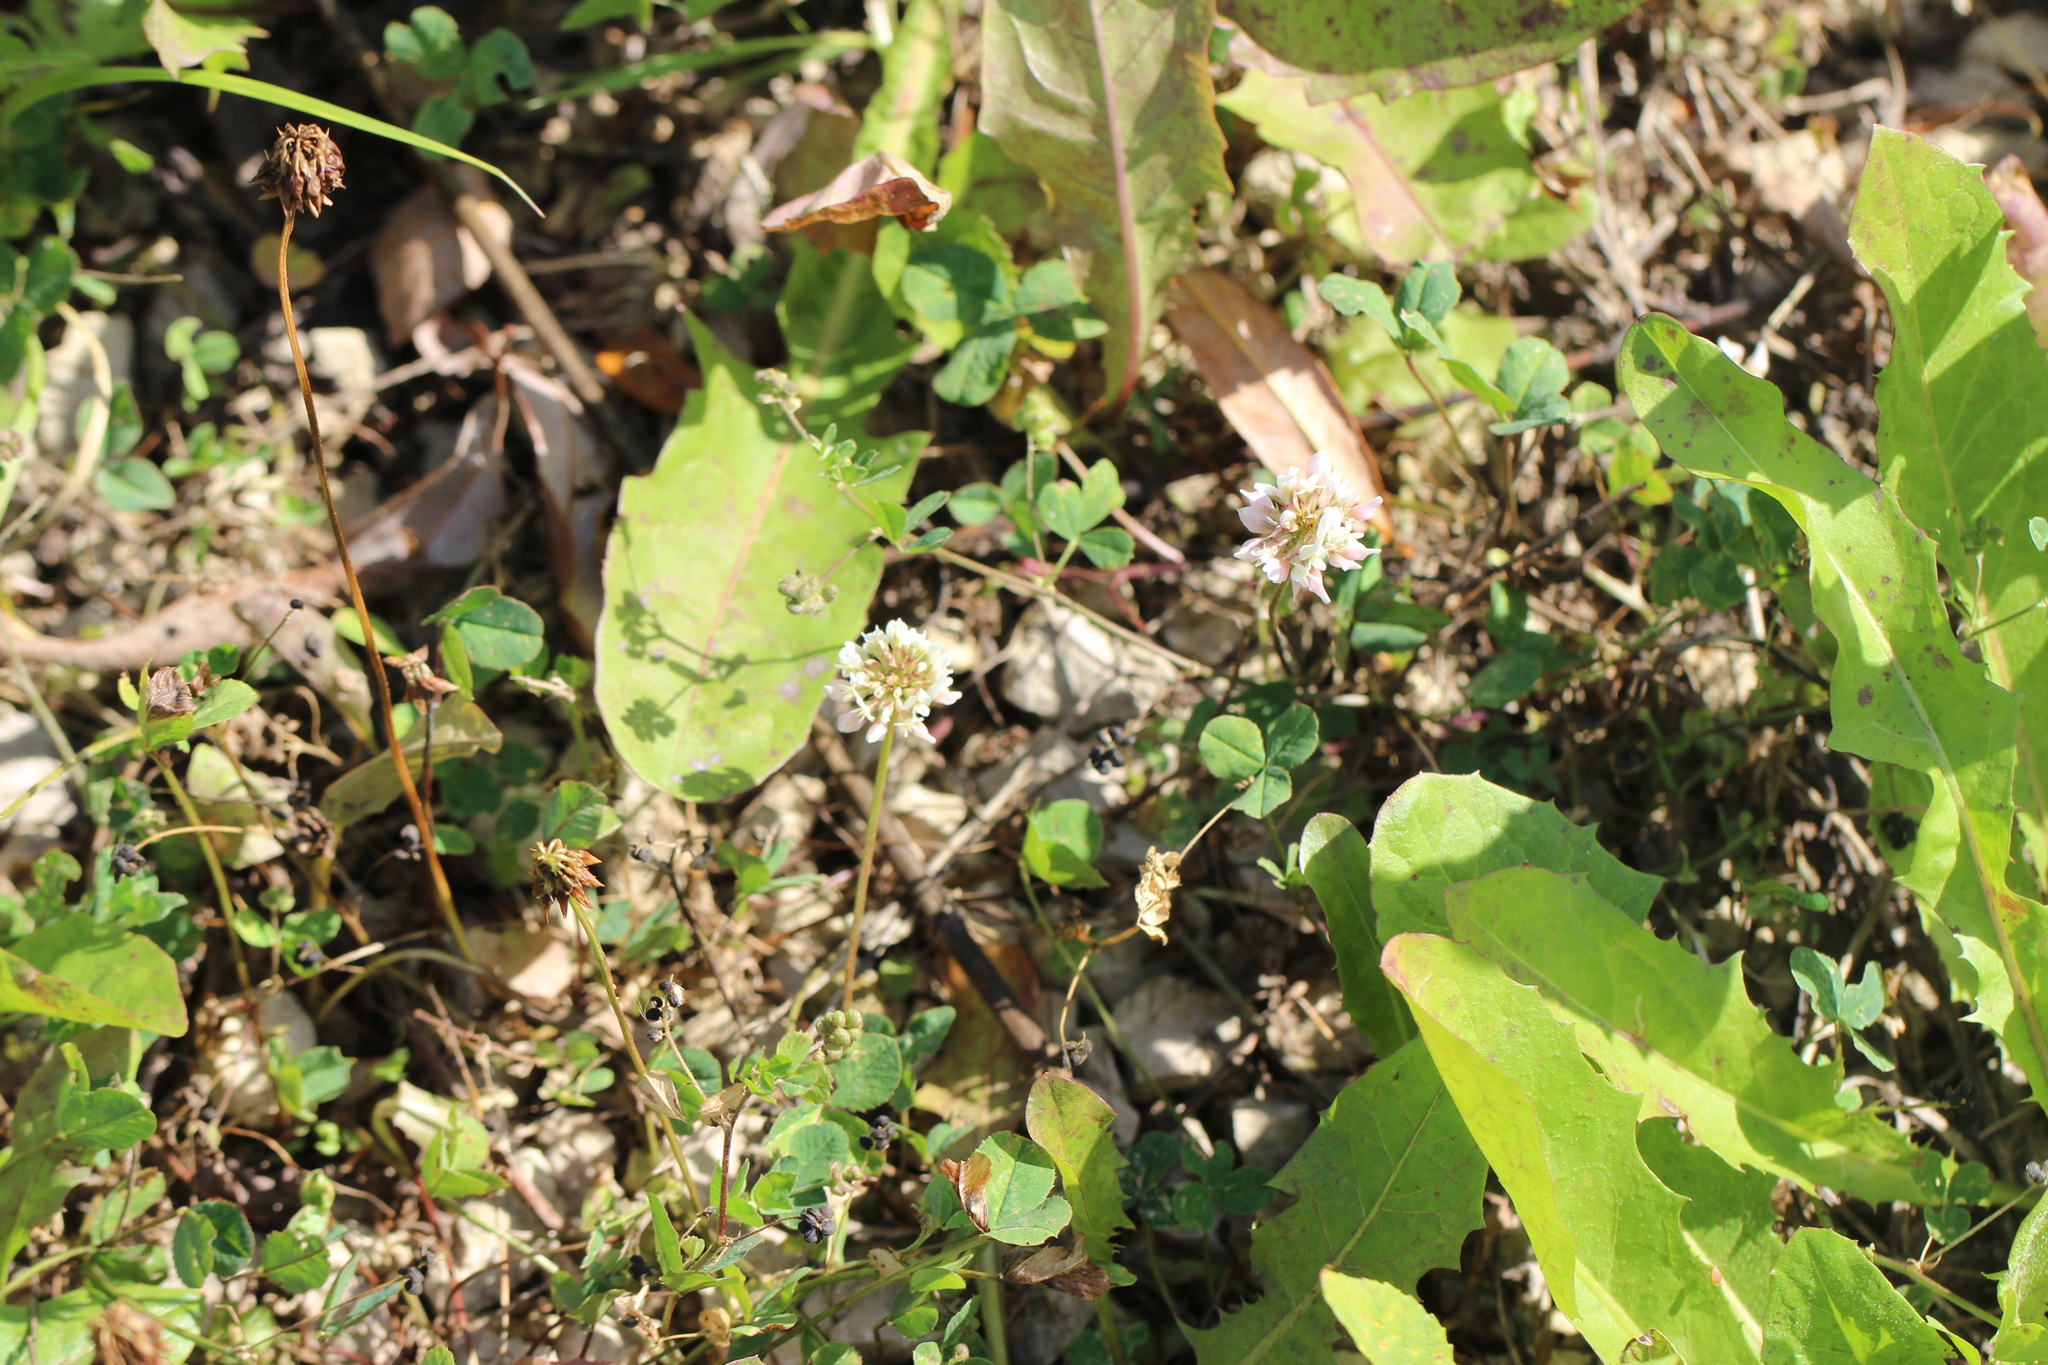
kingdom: Plantae
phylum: Tracheophyta
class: Magnoliopsida
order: Fabales
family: Fabaceae
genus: Trifolium
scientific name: Trifolium repens
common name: White clover
